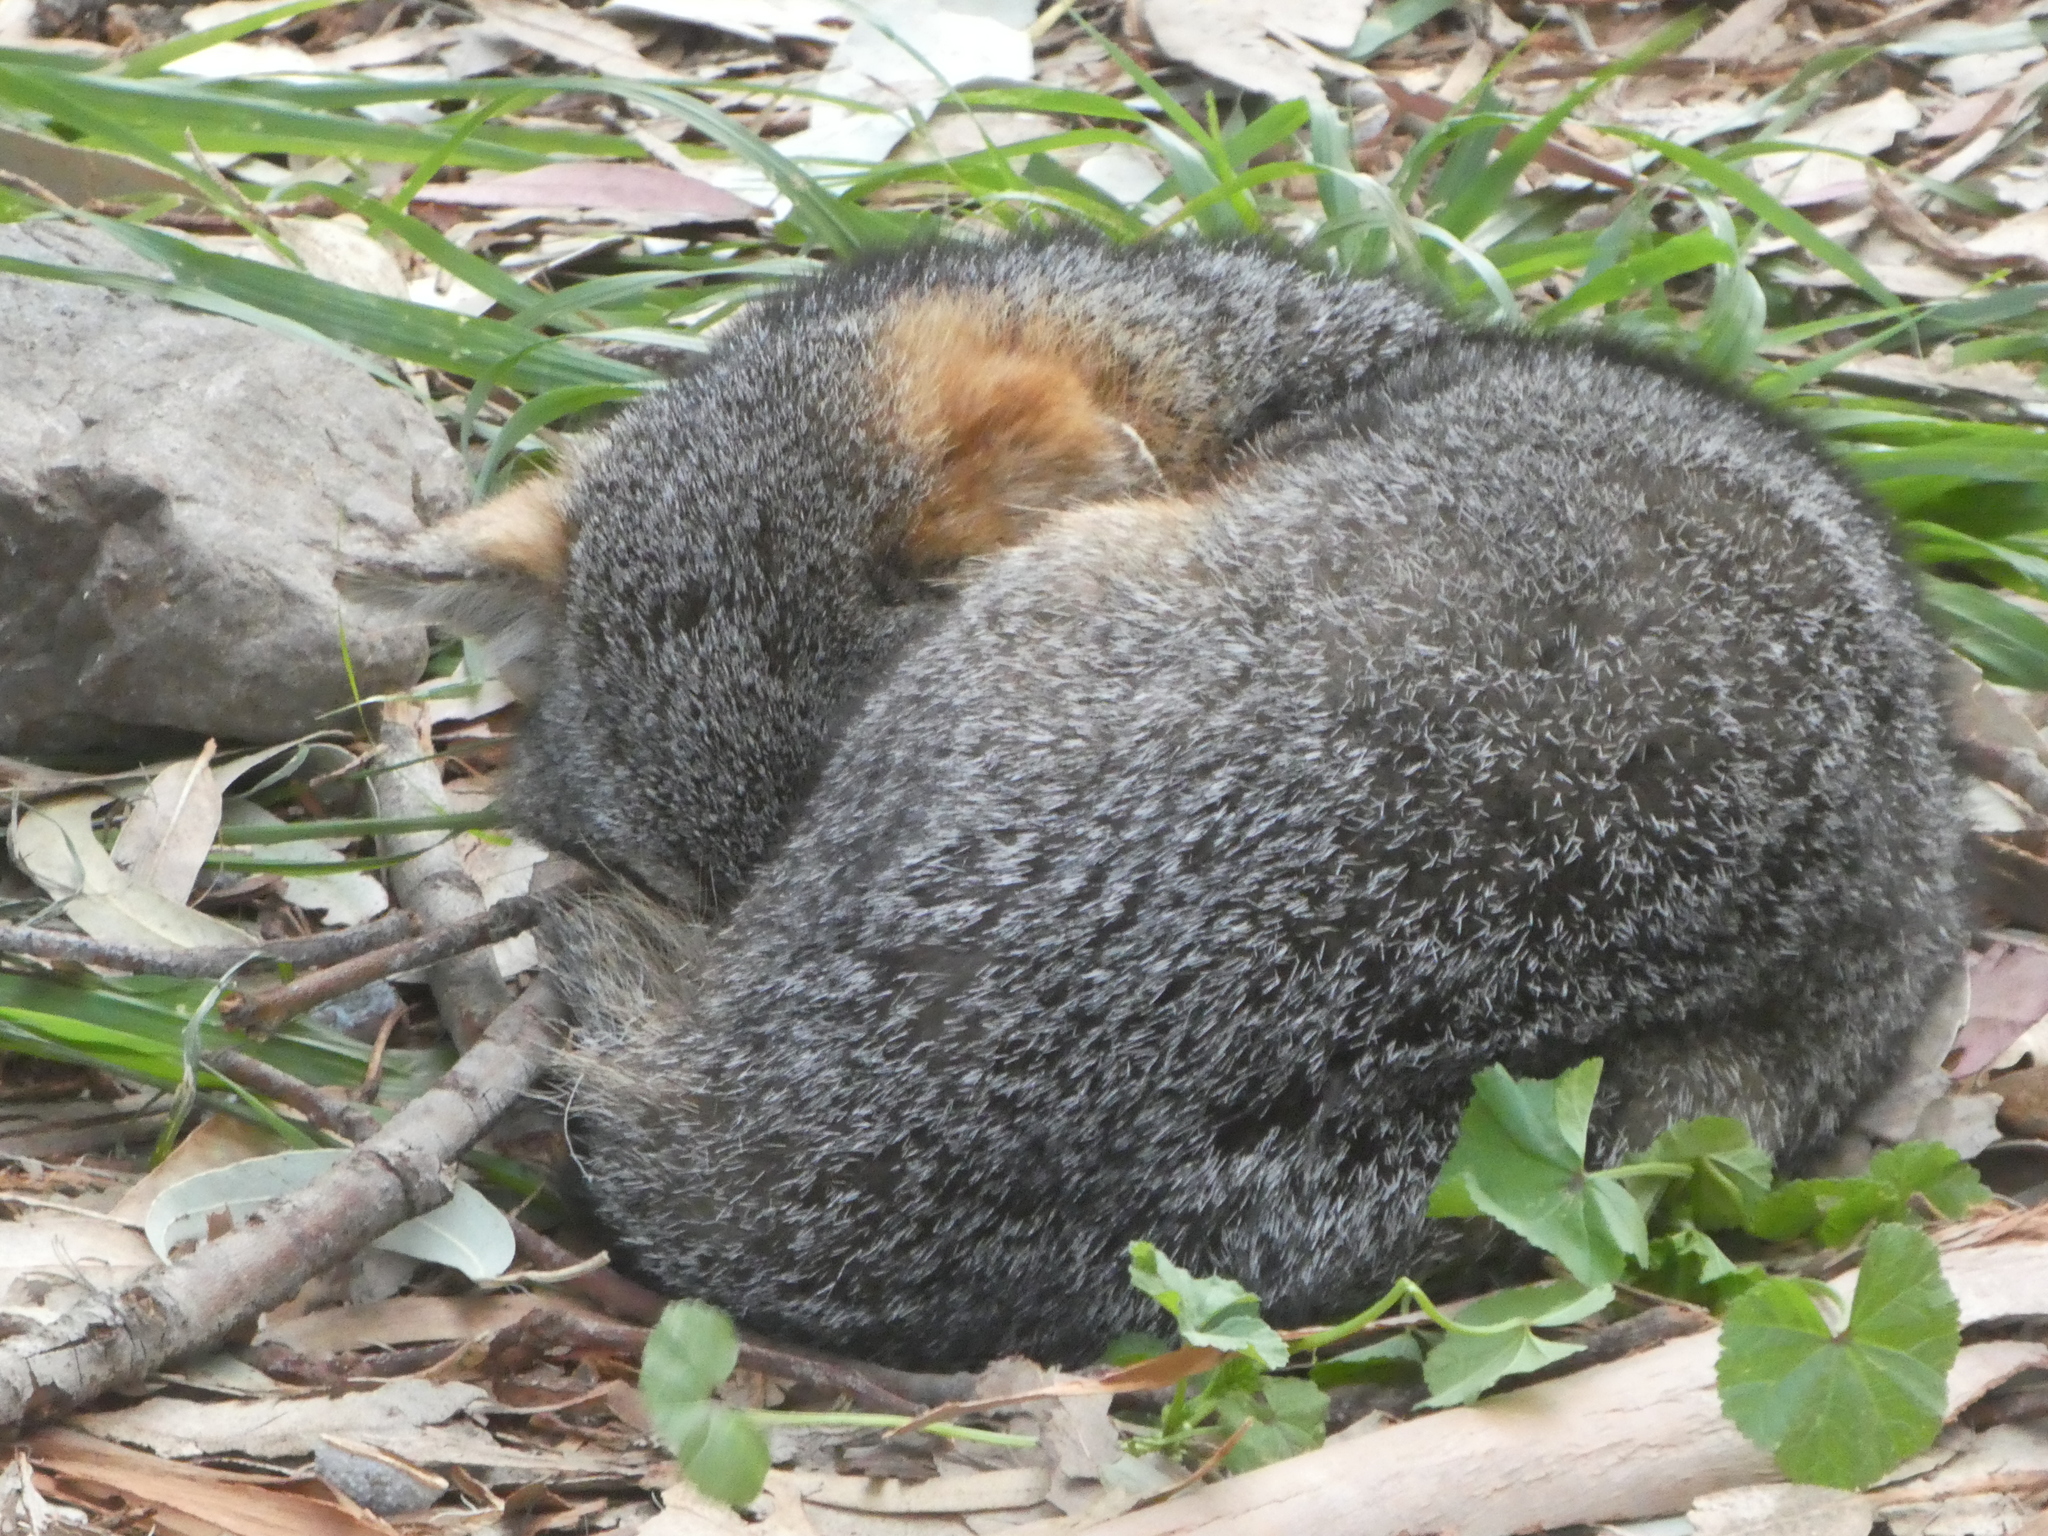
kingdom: Animalia
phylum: Chordata
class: Mammalia
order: Carnivora
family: Canidae
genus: Urocyon
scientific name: Urocyon littoralis
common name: Island gray fox
